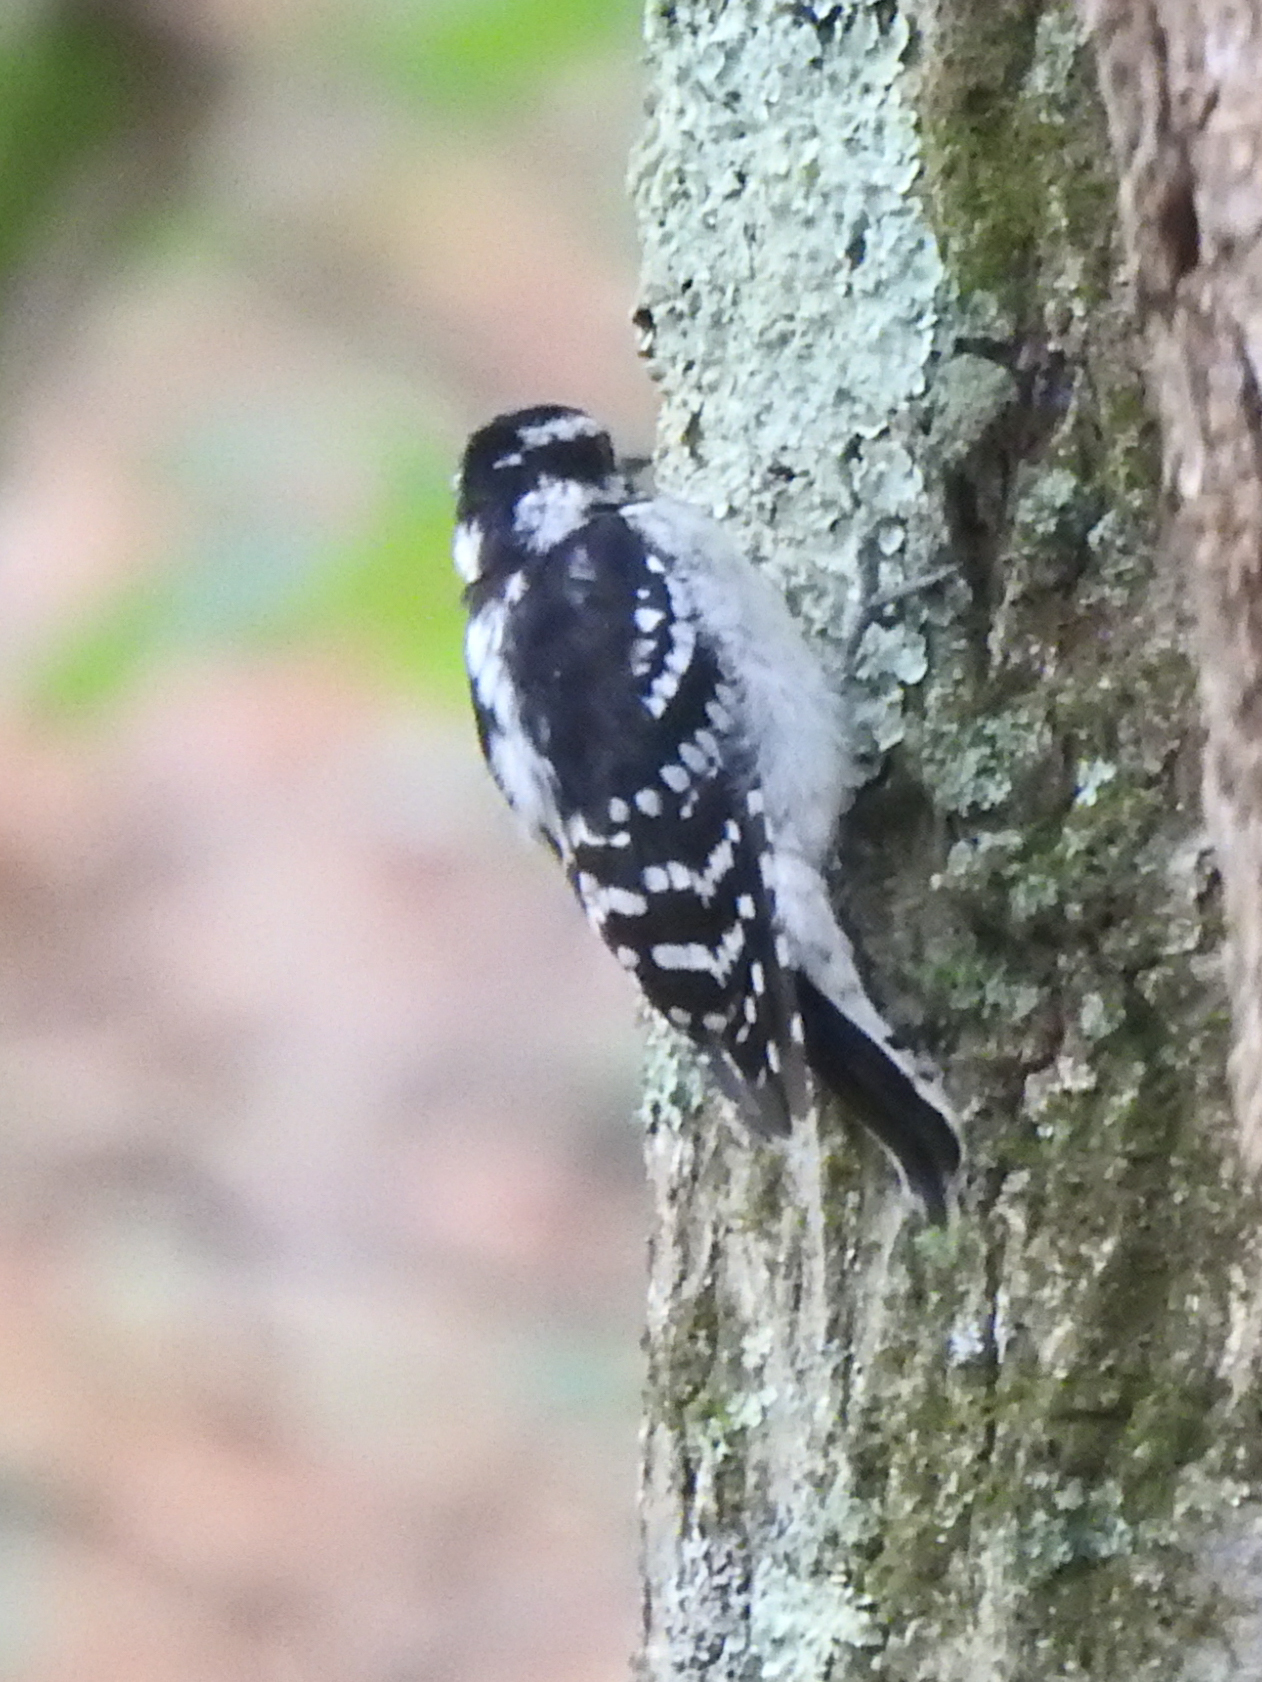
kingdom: Animalia
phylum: Chordata
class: Aves
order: Piciformes
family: Picidae
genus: Dryobates
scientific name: Dryobates pubescens
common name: Downy woodpecker
